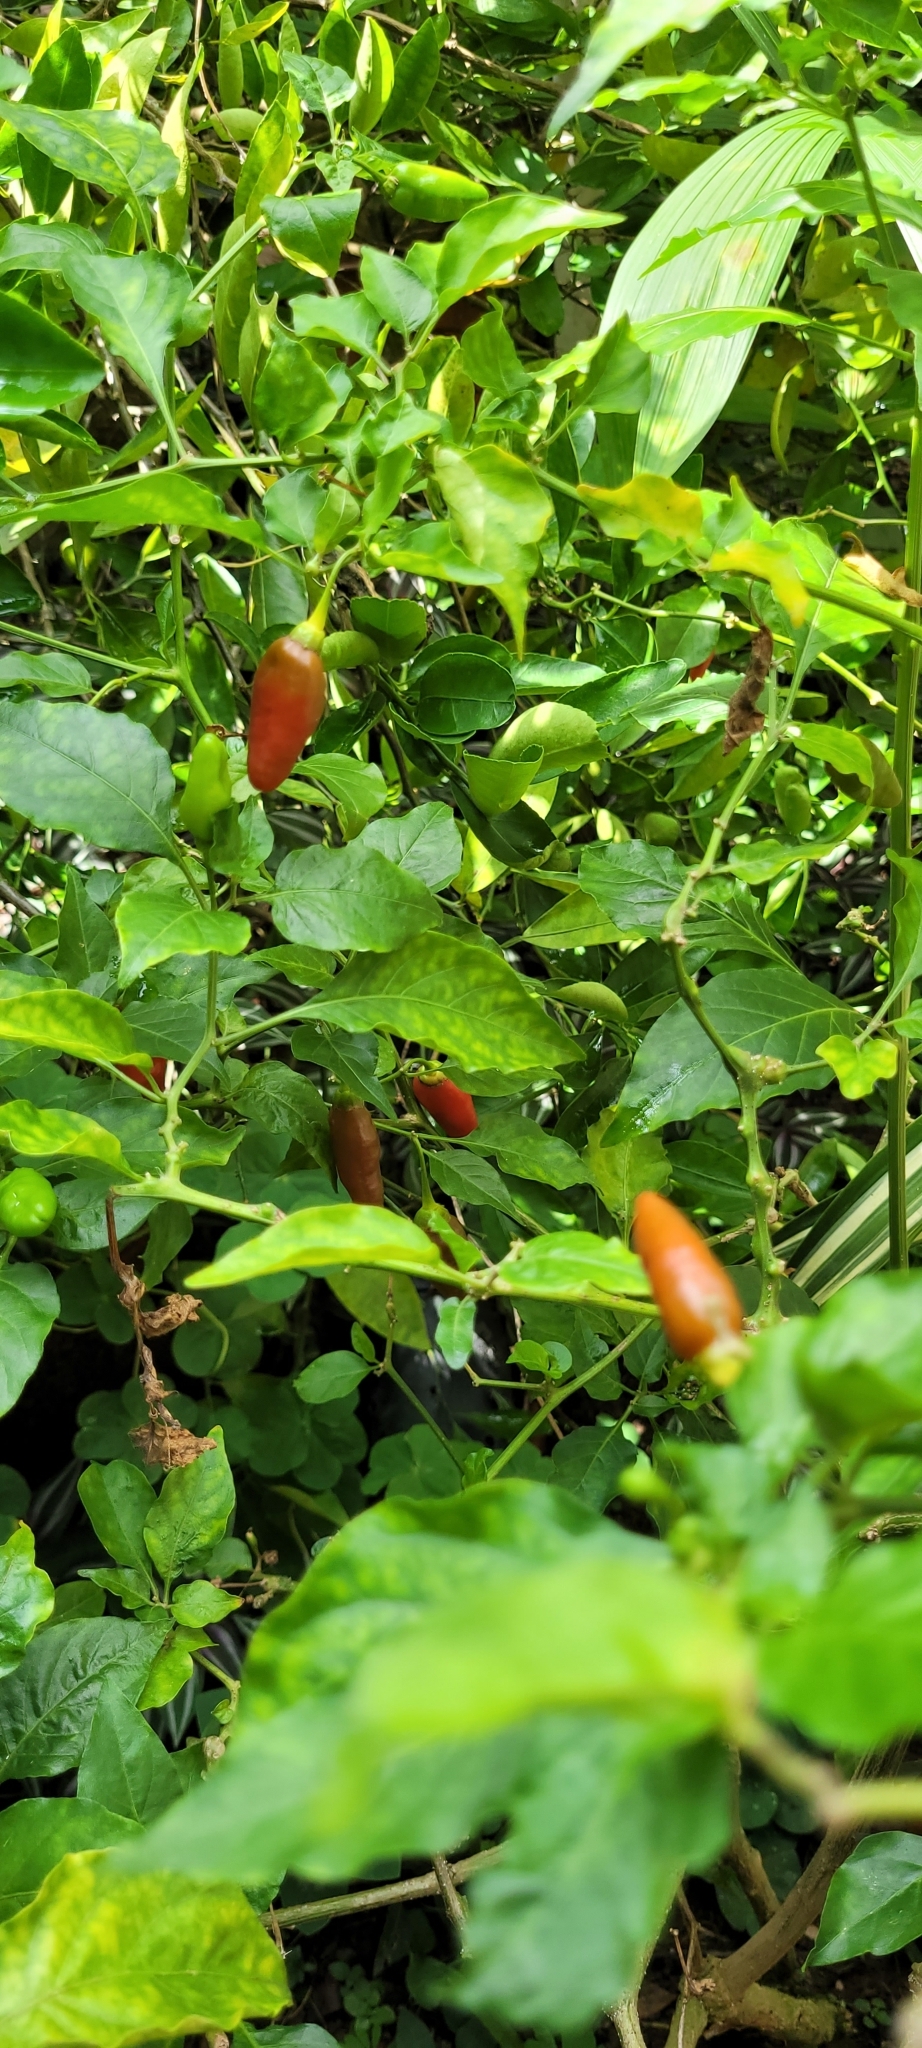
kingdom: Plantae
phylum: Tracheophyta
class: Magnoliopsida
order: Solanales
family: Solanaceae
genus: Capsicum
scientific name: Capsicum annuum
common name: Sweet pepper
